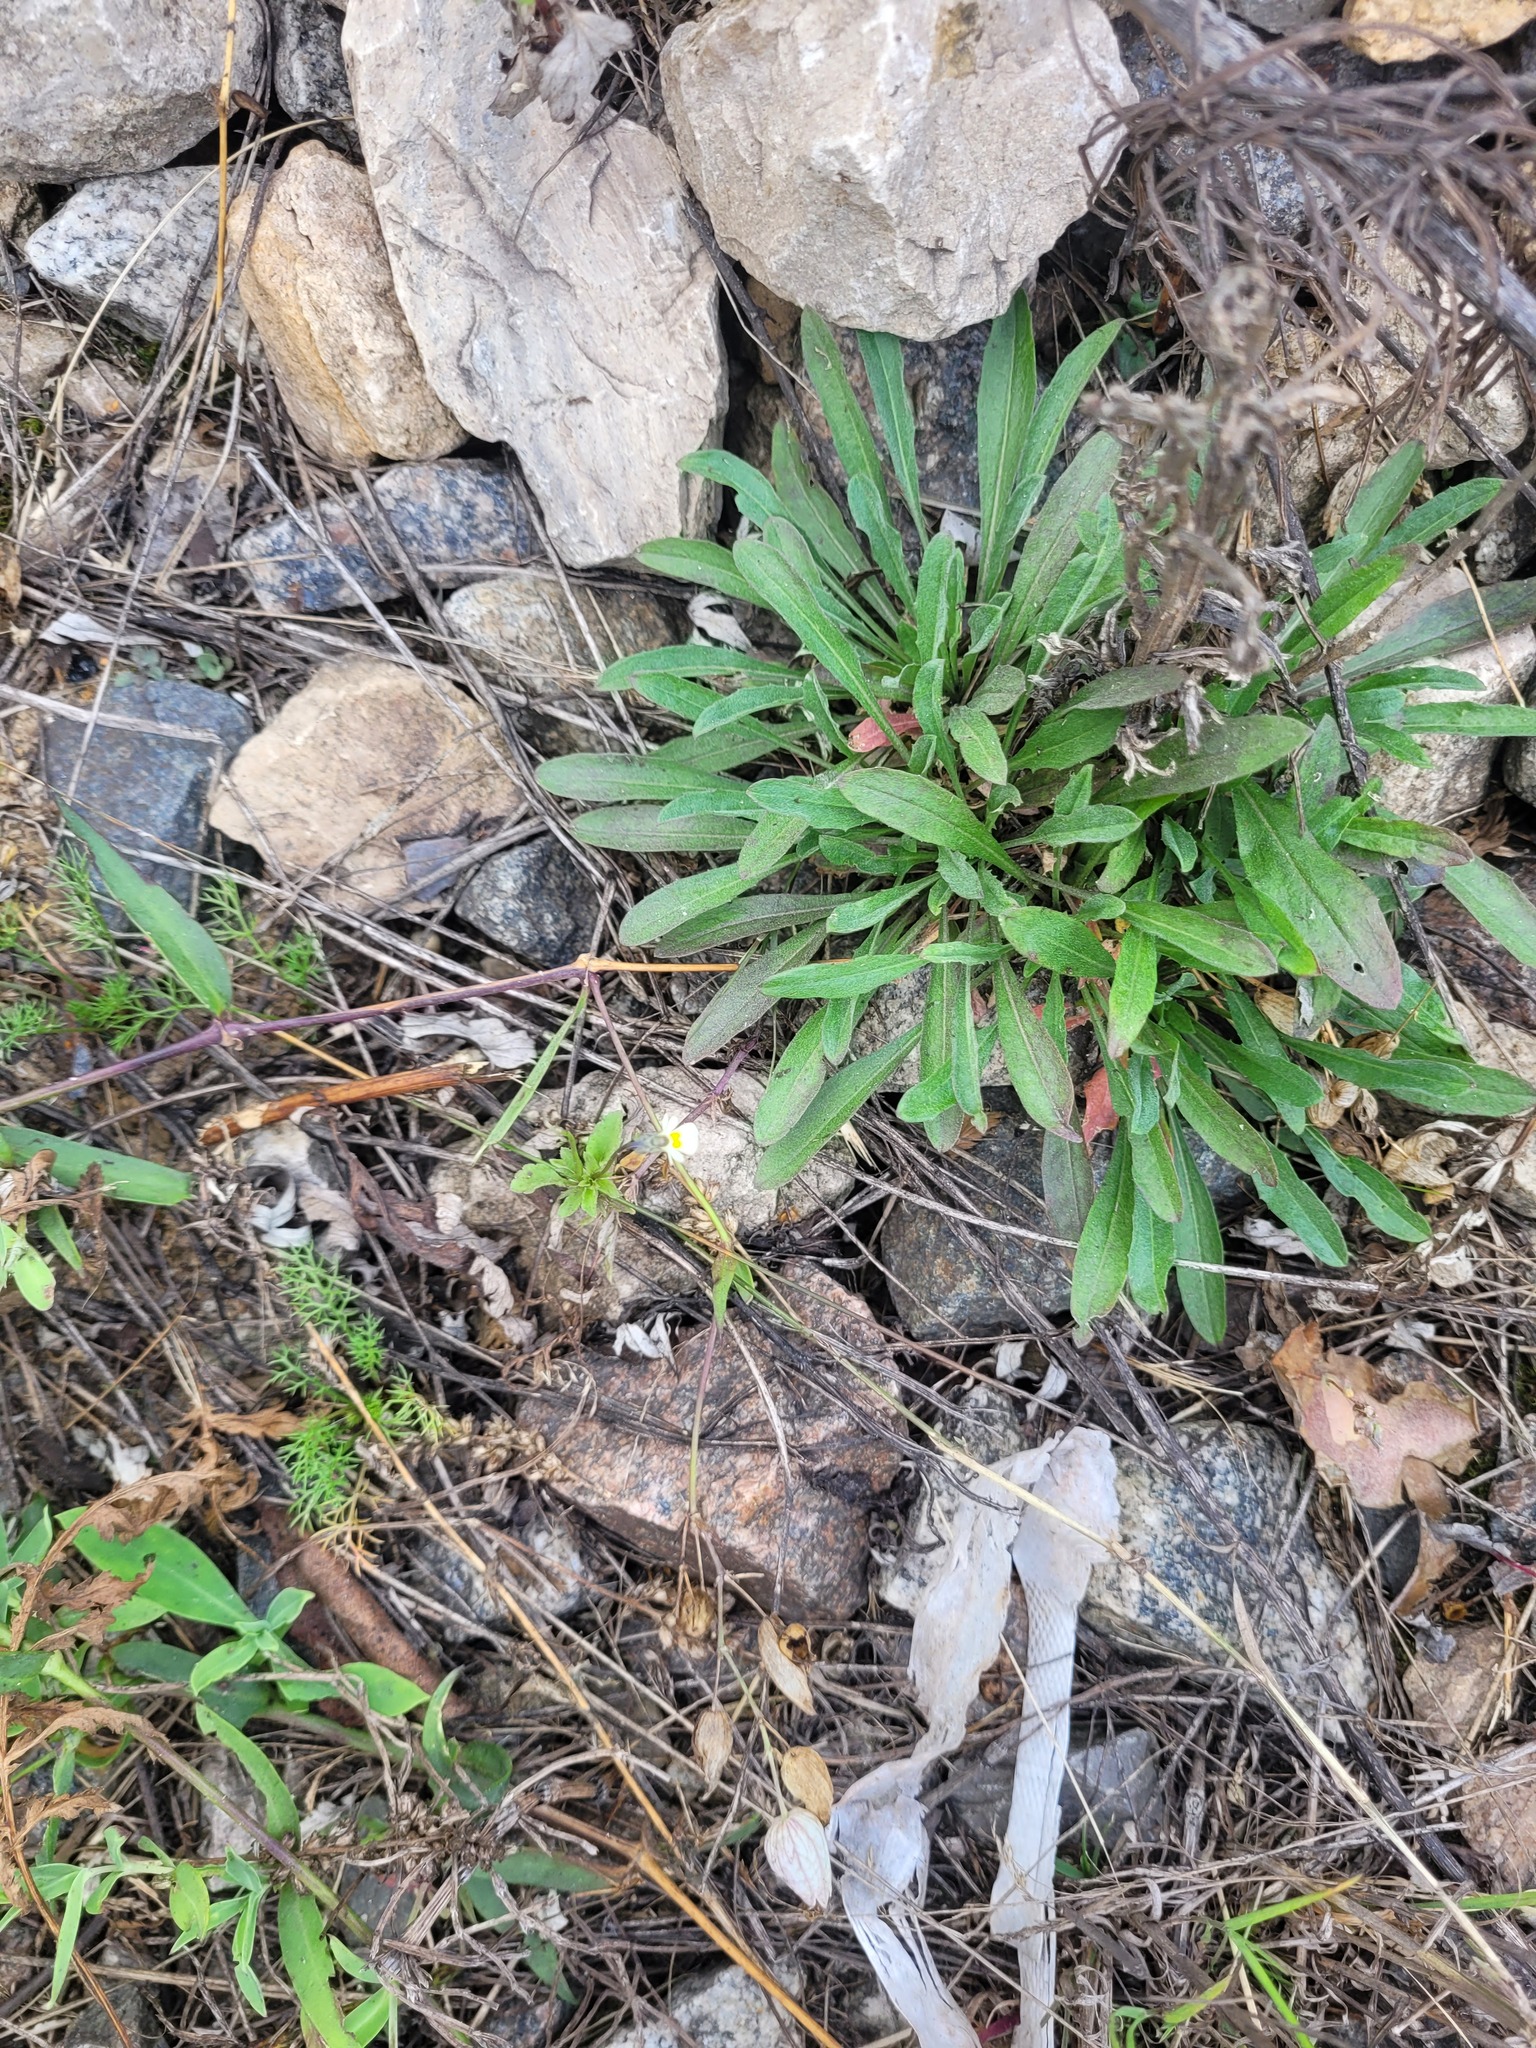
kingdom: Plantae
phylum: Tracheophyta
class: Magnoliopsida
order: Malpighiales
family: Violaceae
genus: Viola
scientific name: Viola arvensis
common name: Field pansy
